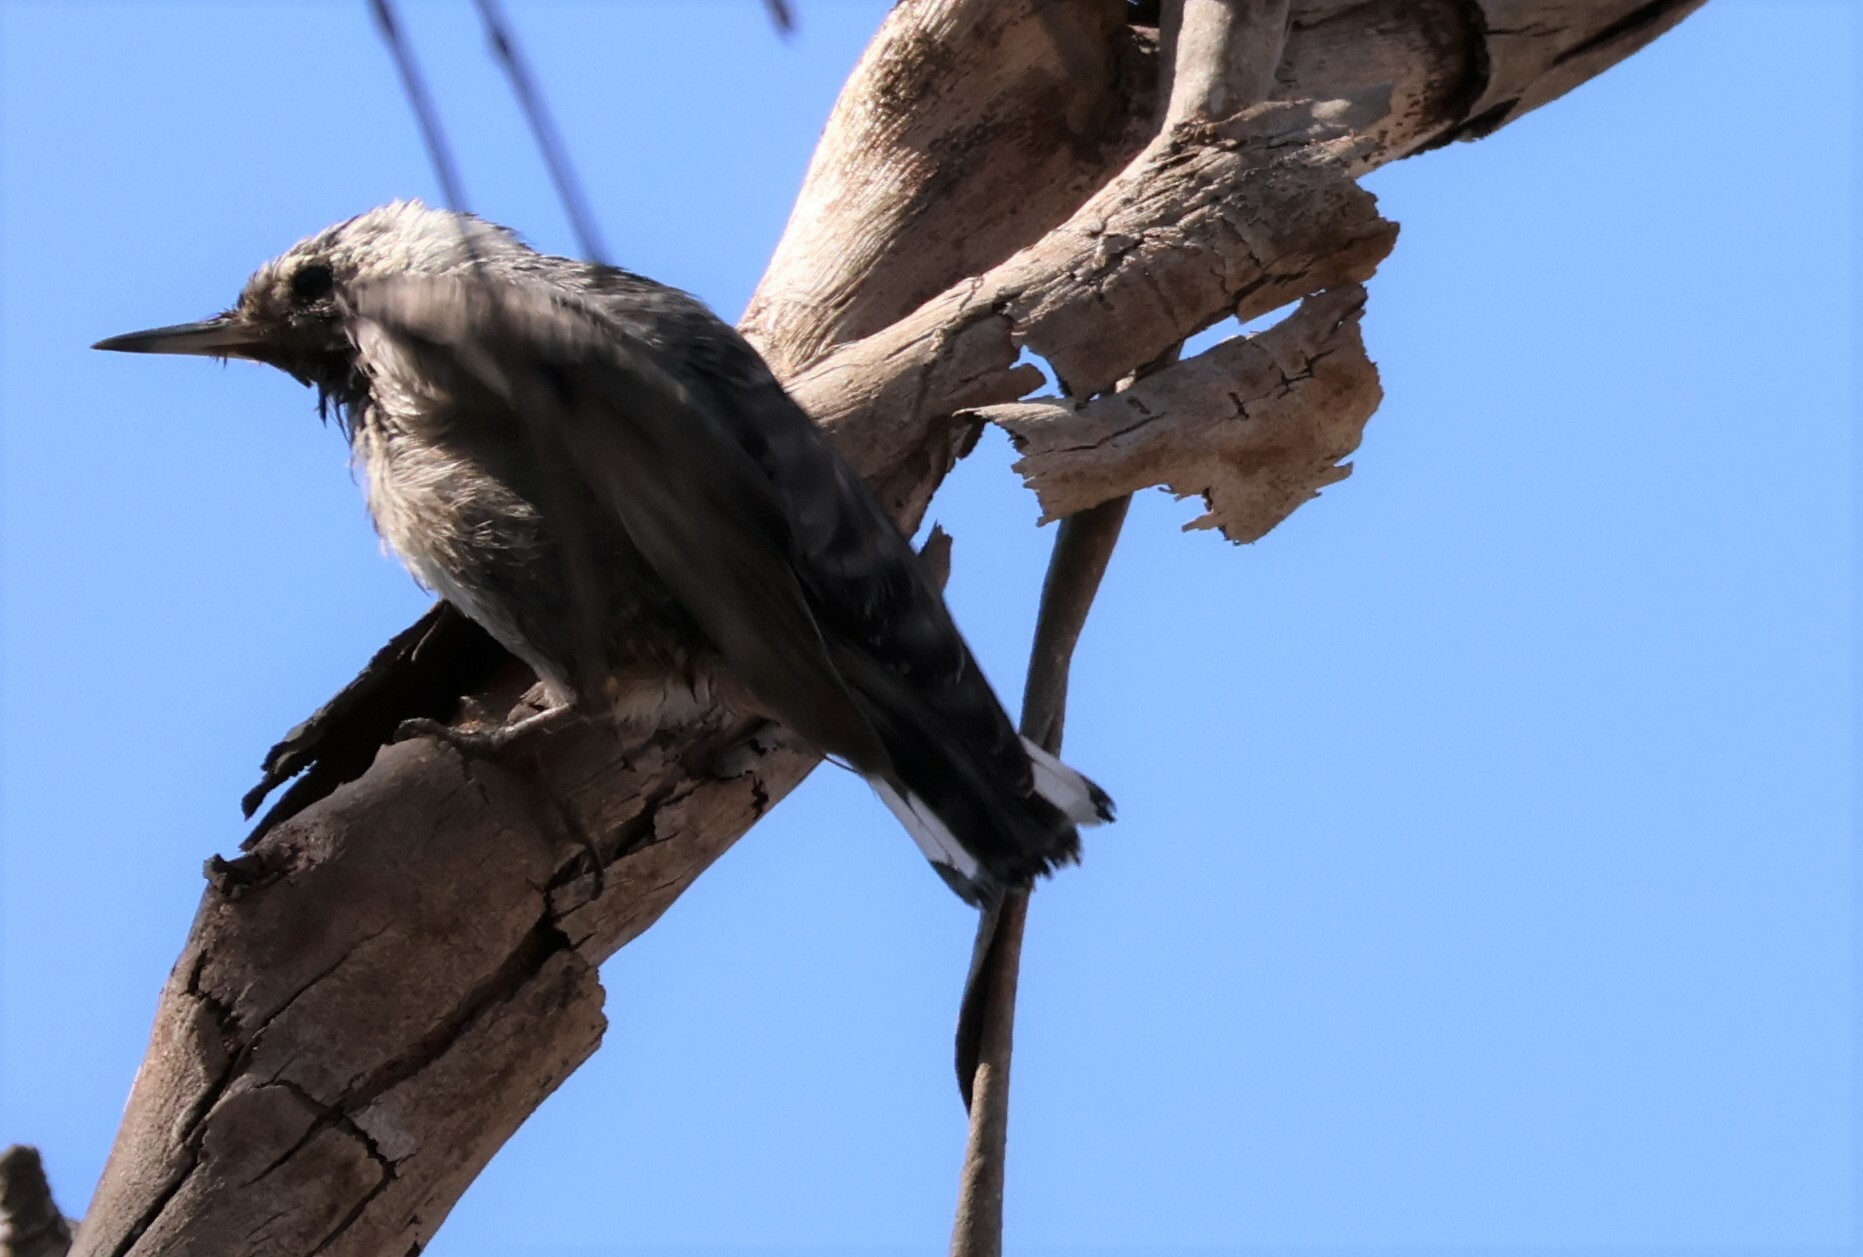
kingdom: Animalia
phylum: Chordata
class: Aves
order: Passeriformes
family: Sittidae
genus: Sitta
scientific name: Sitta carolinensis
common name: White-breasted nuthatch
